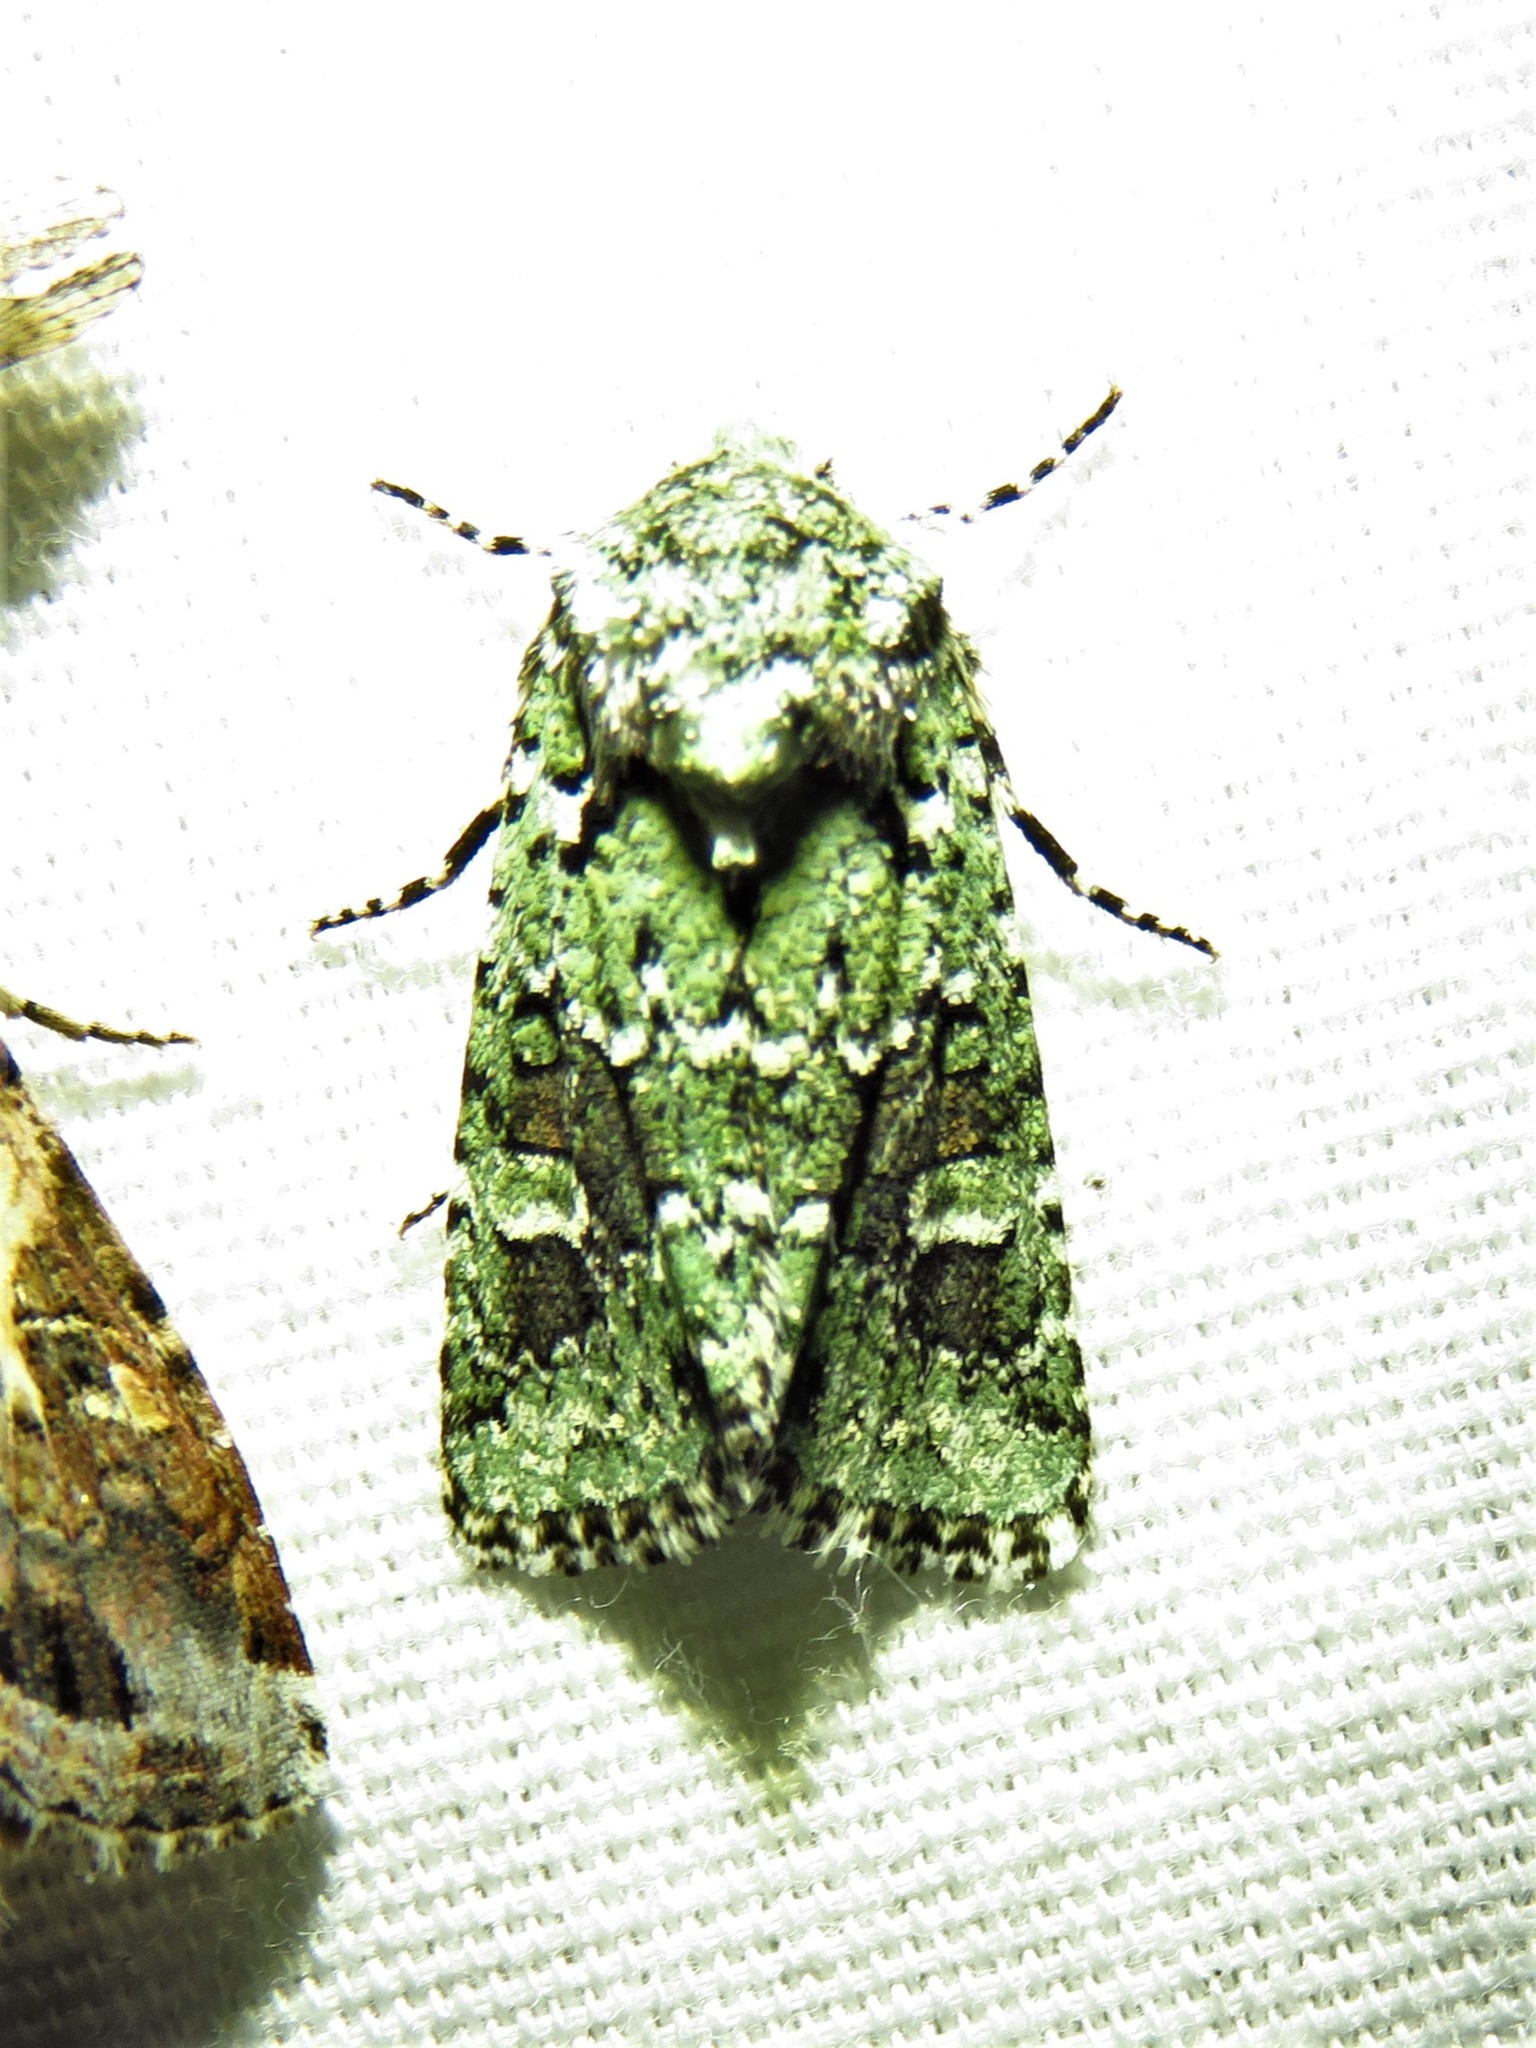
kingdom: Animalia
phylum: Arthropoda
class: Insecta
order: Lepidoptera
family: Noctuidae
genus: Lacinipolia
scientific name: Lacinipolia laudabilis
